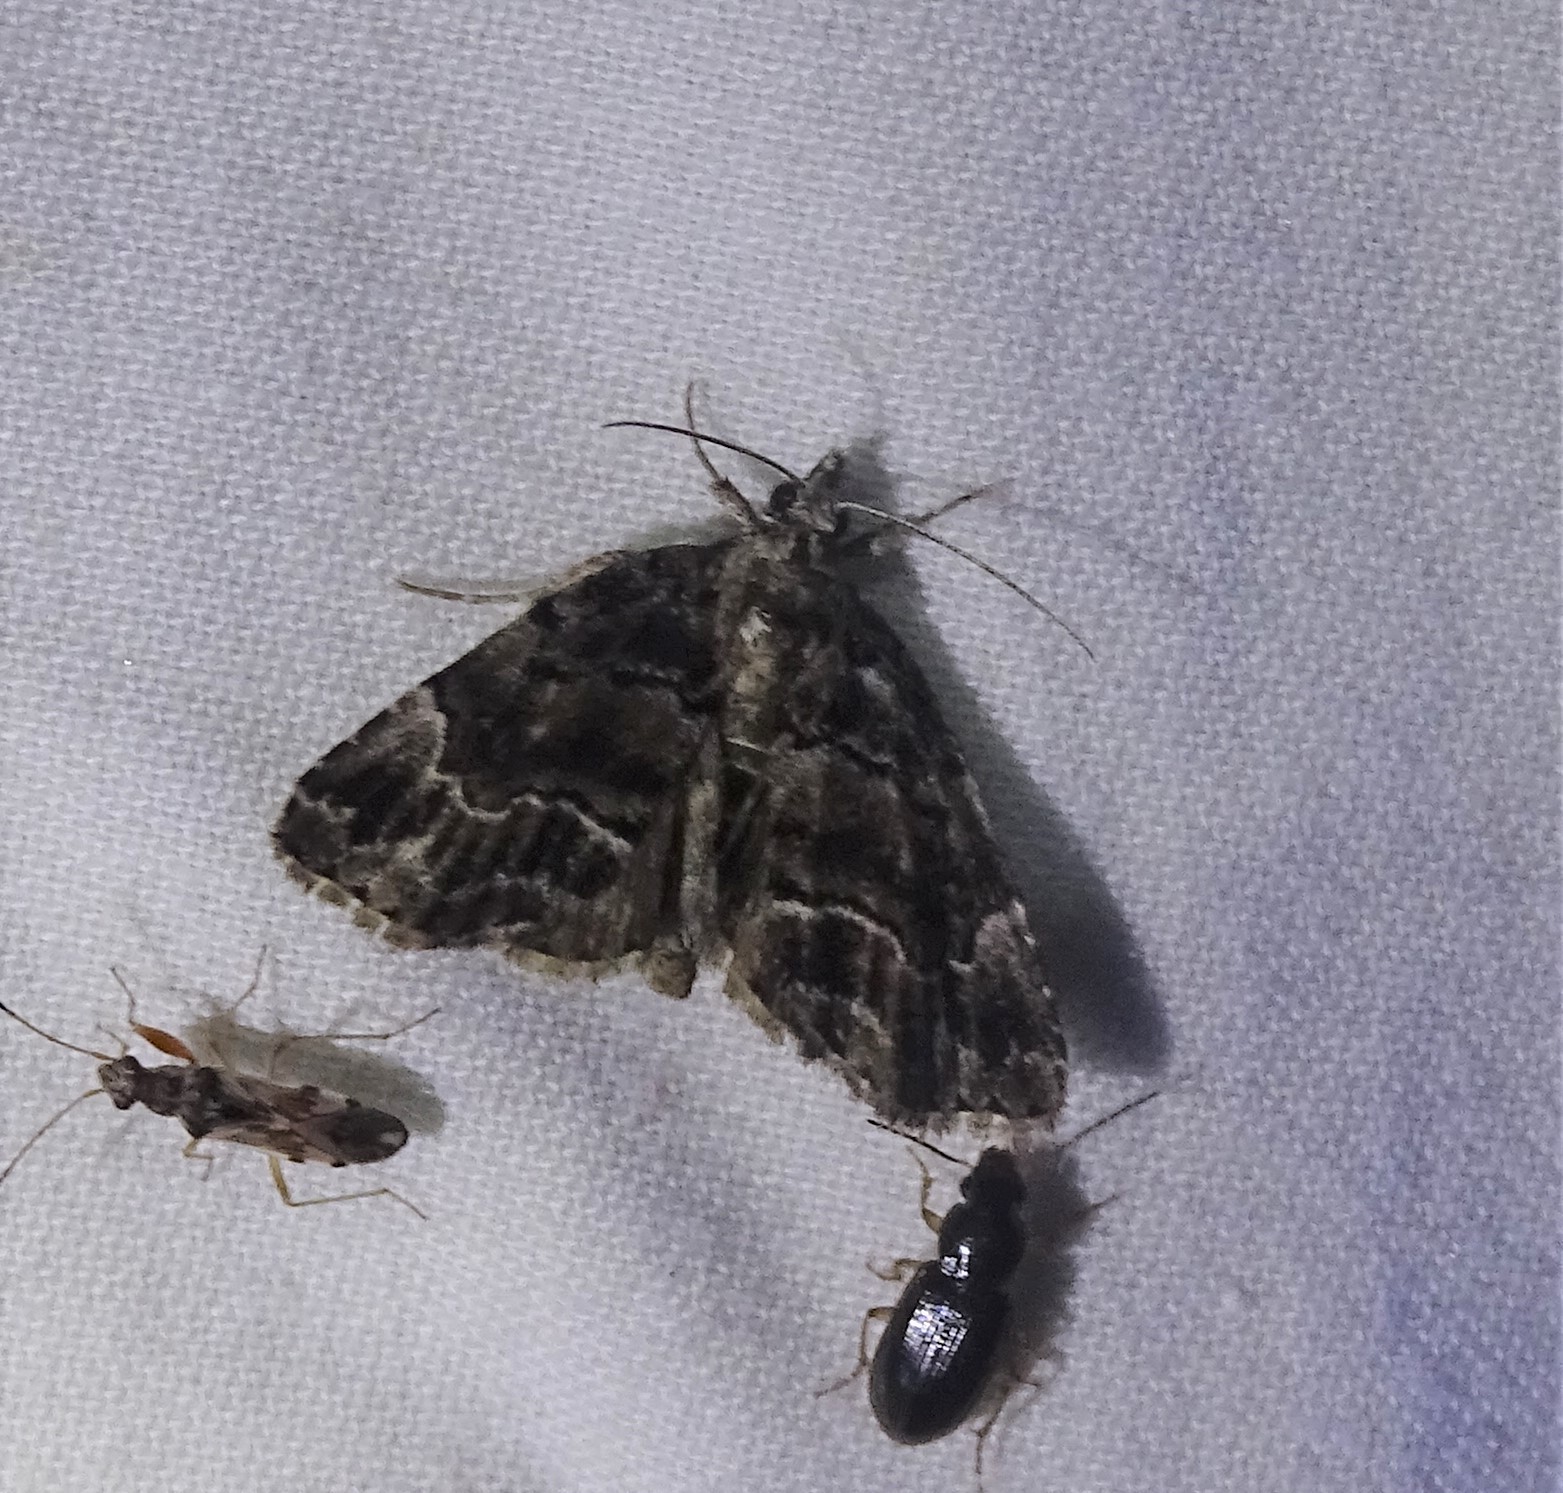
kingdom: Animalia
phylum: Arthropoda
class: Insecta
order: Lepidoptera
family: Erebidae
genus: Cutina
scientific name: Cutina arcuata
